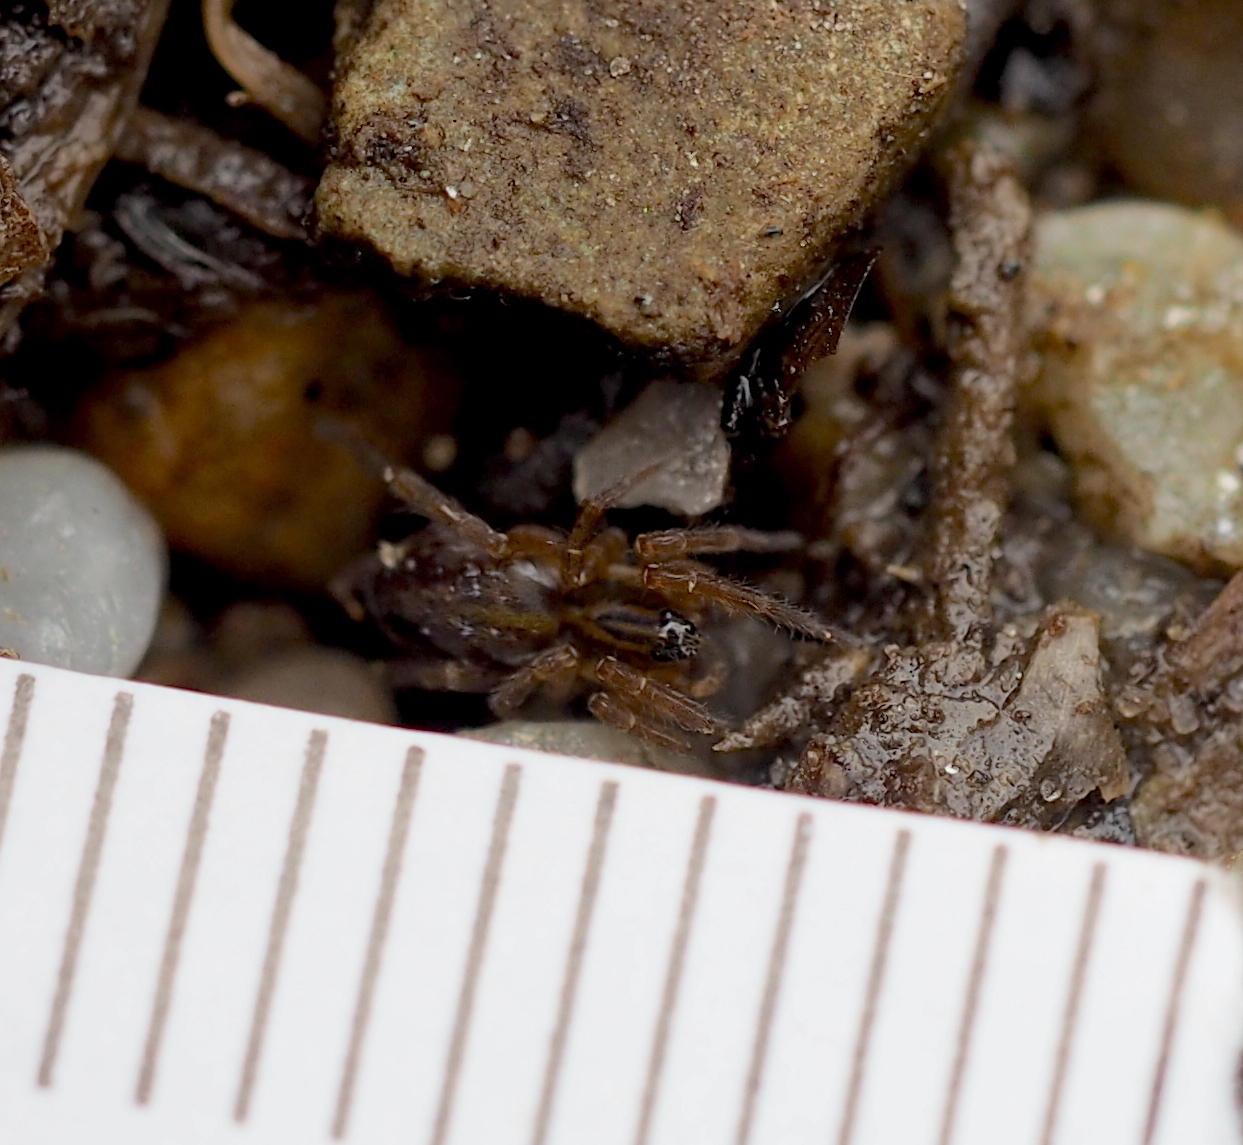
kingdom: Animalia
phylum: Arthropoda
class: Arachnida
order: Araneae
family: Lycosidae
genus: Pirata
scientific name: Pirata piraticus
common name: Pirate otter spider
